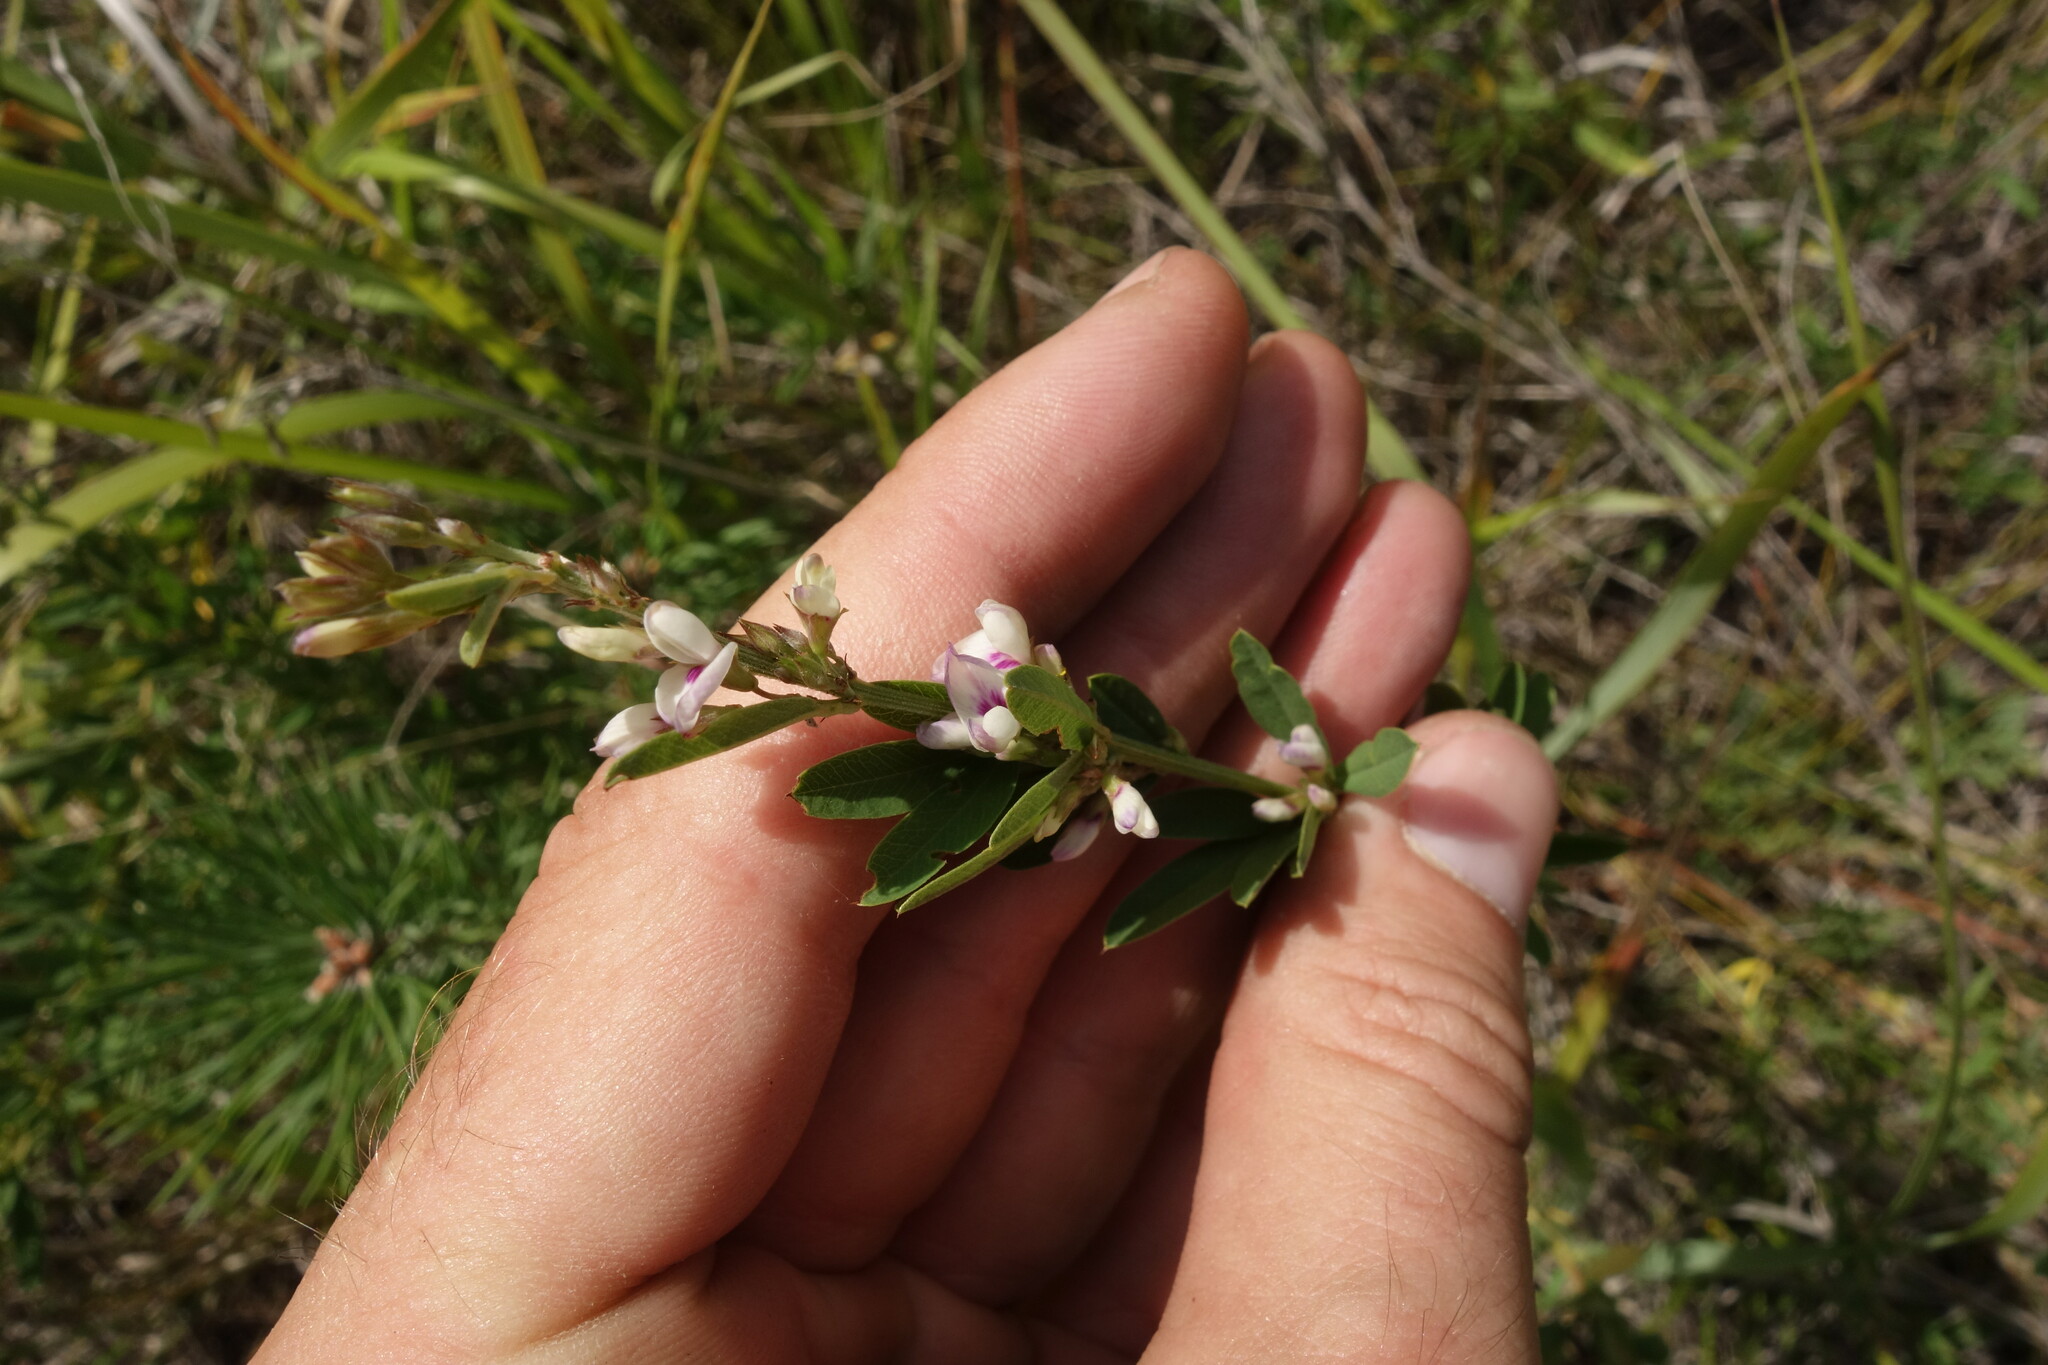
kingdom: Plantae
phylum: Tracheophyta
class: Magnoliopsida
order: Fabales
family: Fabaceae
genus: Lespedeza
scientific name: Lespedeza juncea
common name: Siberian lespedeza
